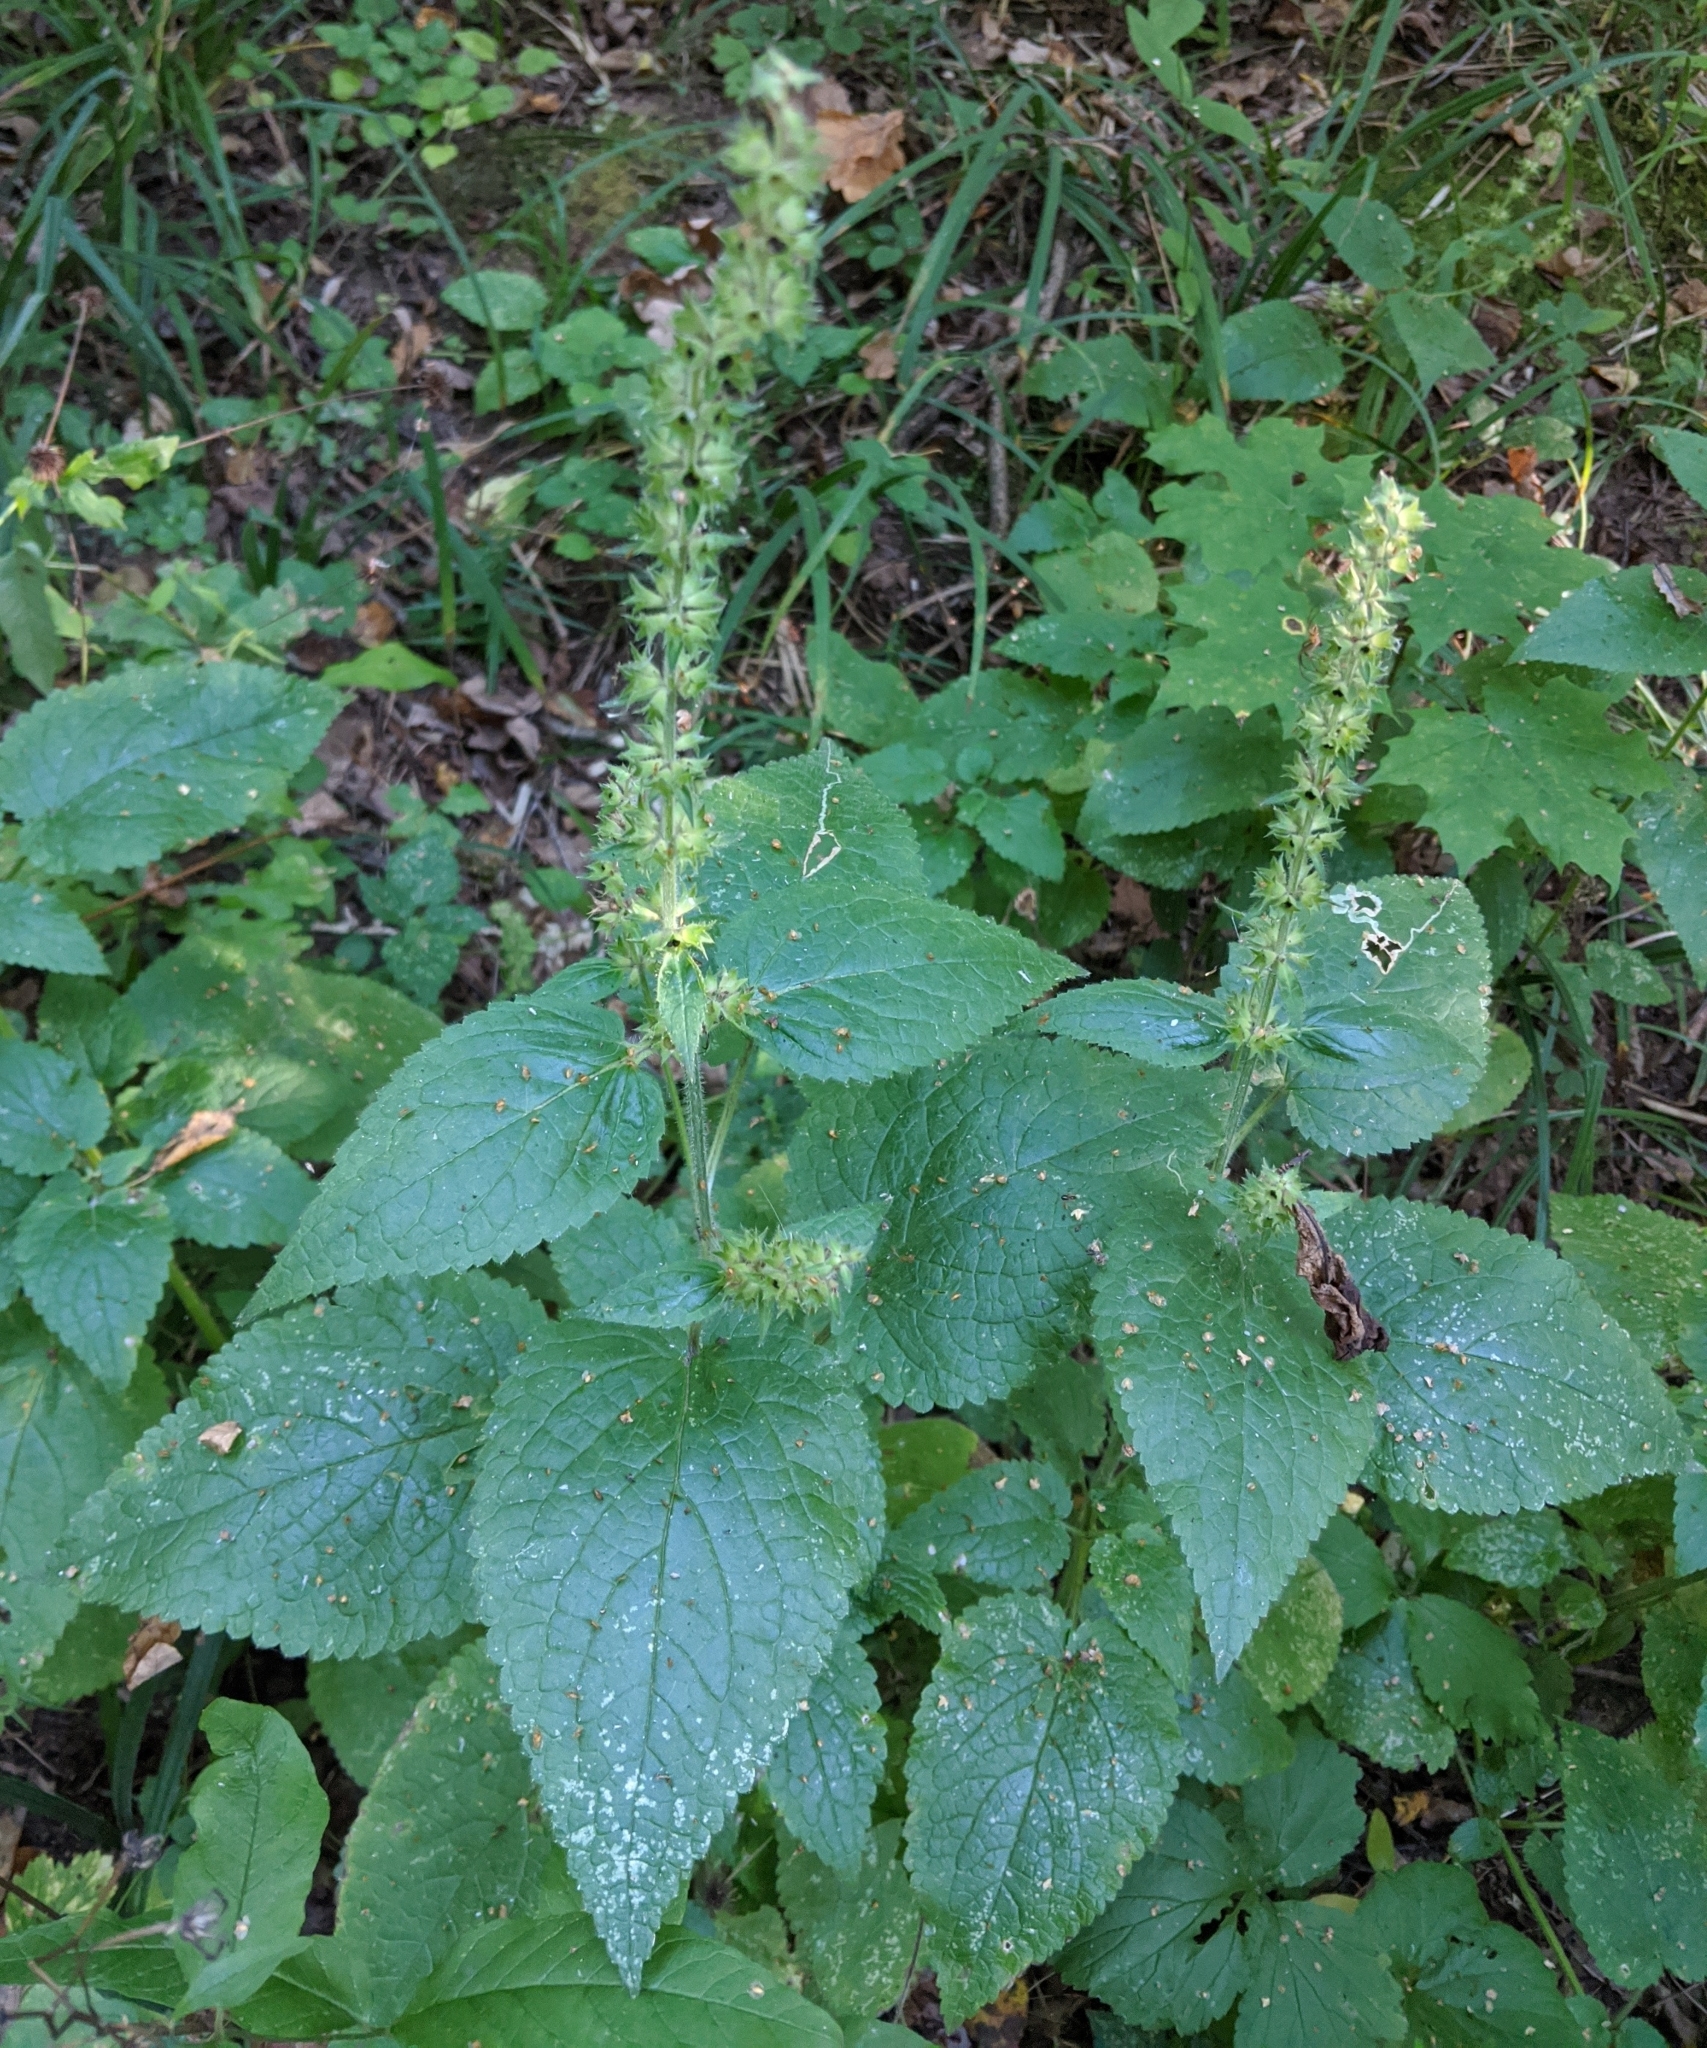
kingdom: Plantae
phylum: Tracheophyta
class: Magnoliopsida
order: Lamiales
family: Lamiaceae
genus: Stachys
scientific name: Stachys sylvatica
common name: Hedge woundwort
